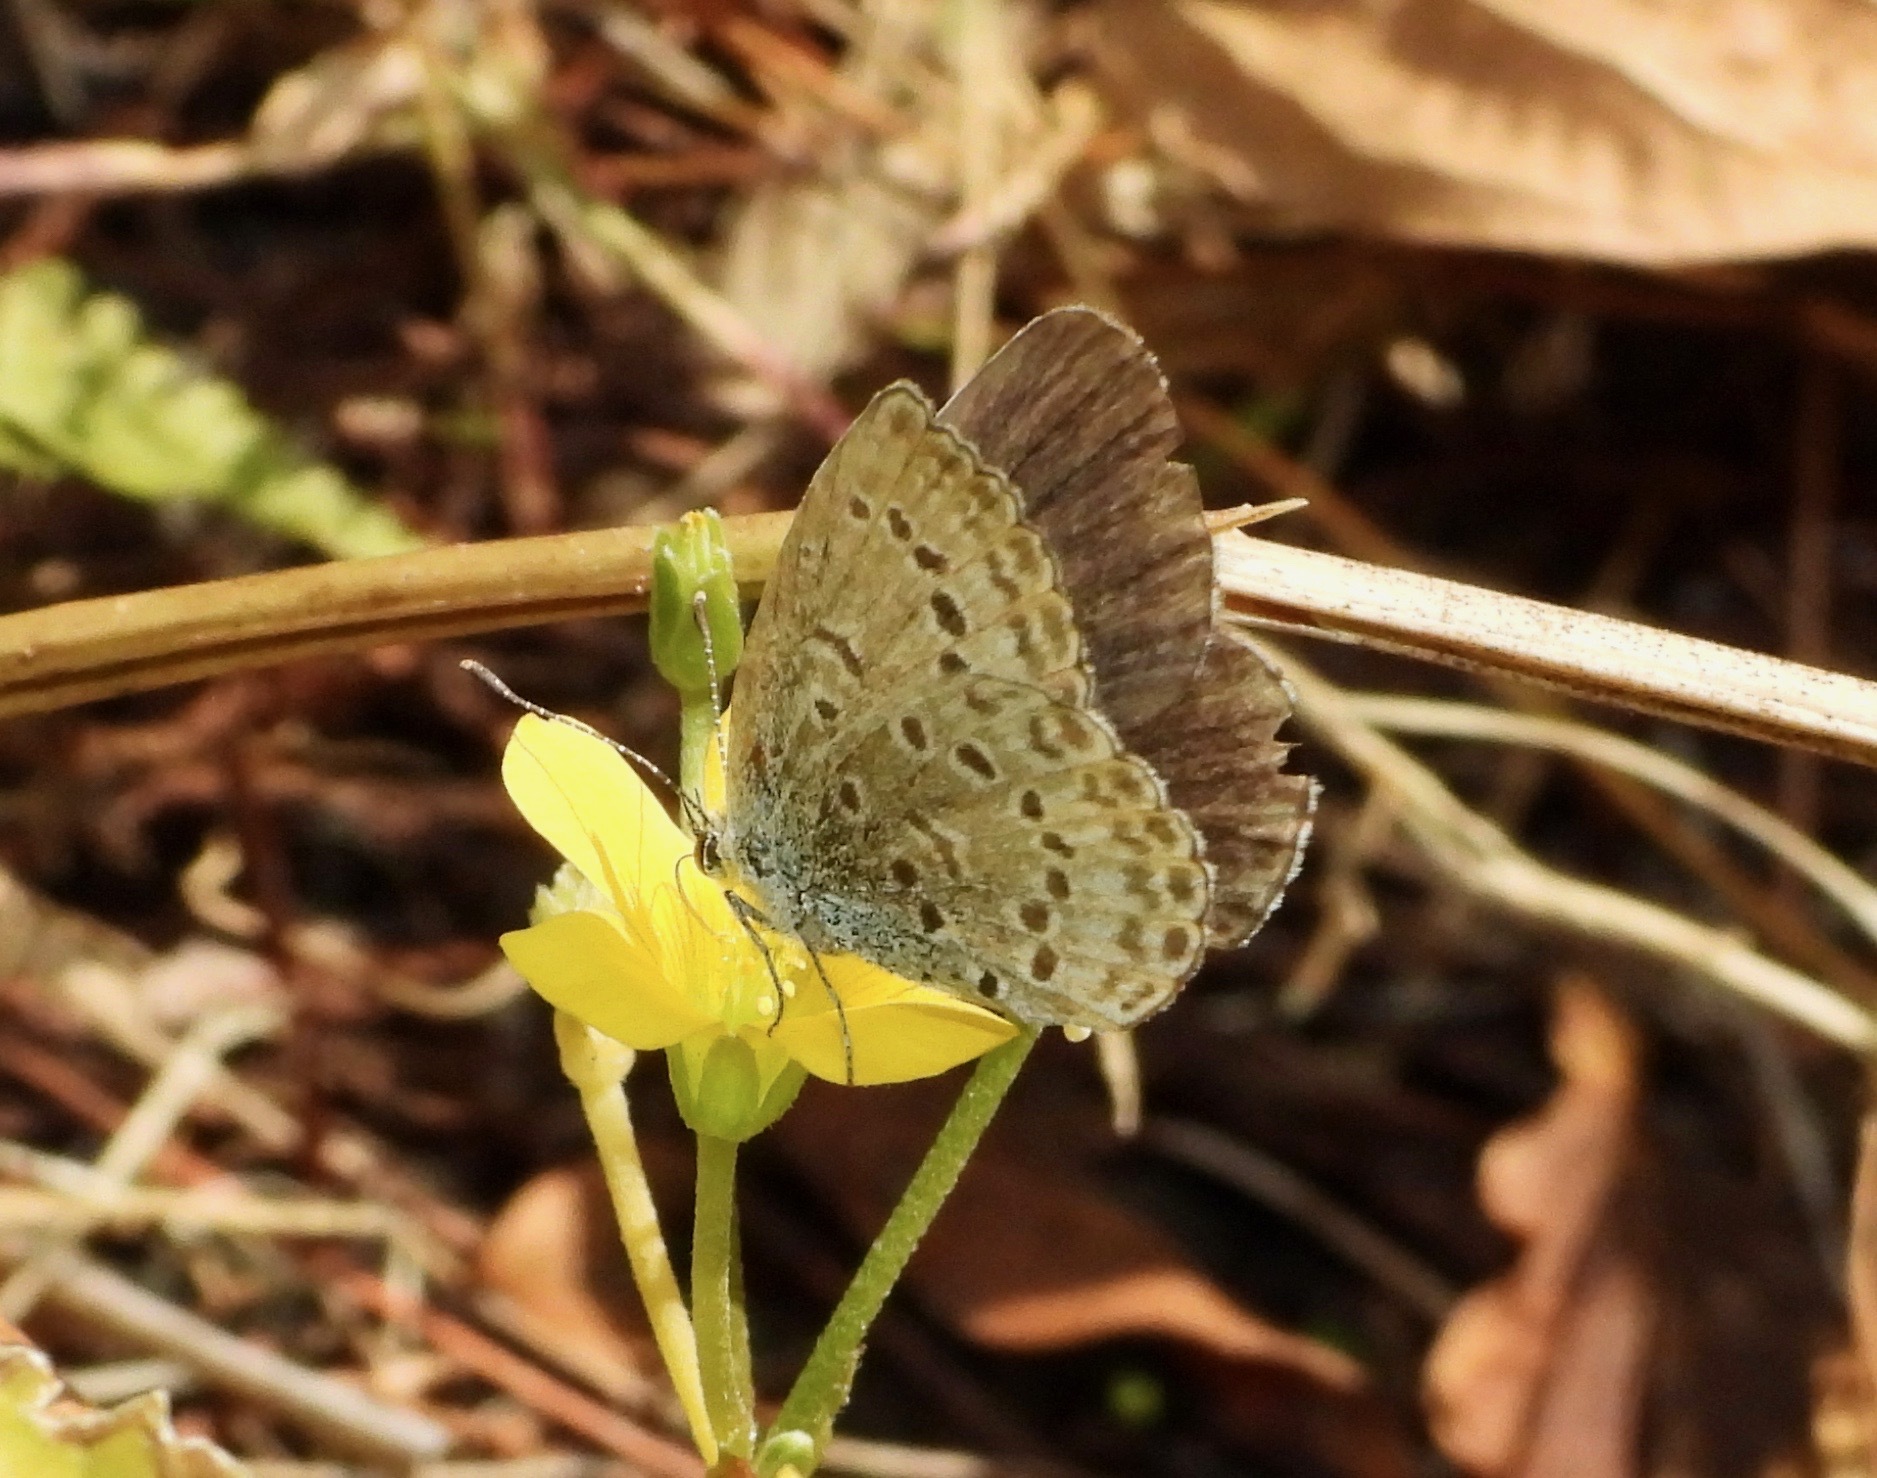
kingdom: Animalia
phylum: Arthropoda
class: Insecta
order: Lepidoptera
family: Lycaenidae
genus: Pseudozizeeria
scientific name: Pseudozizeeria maha
